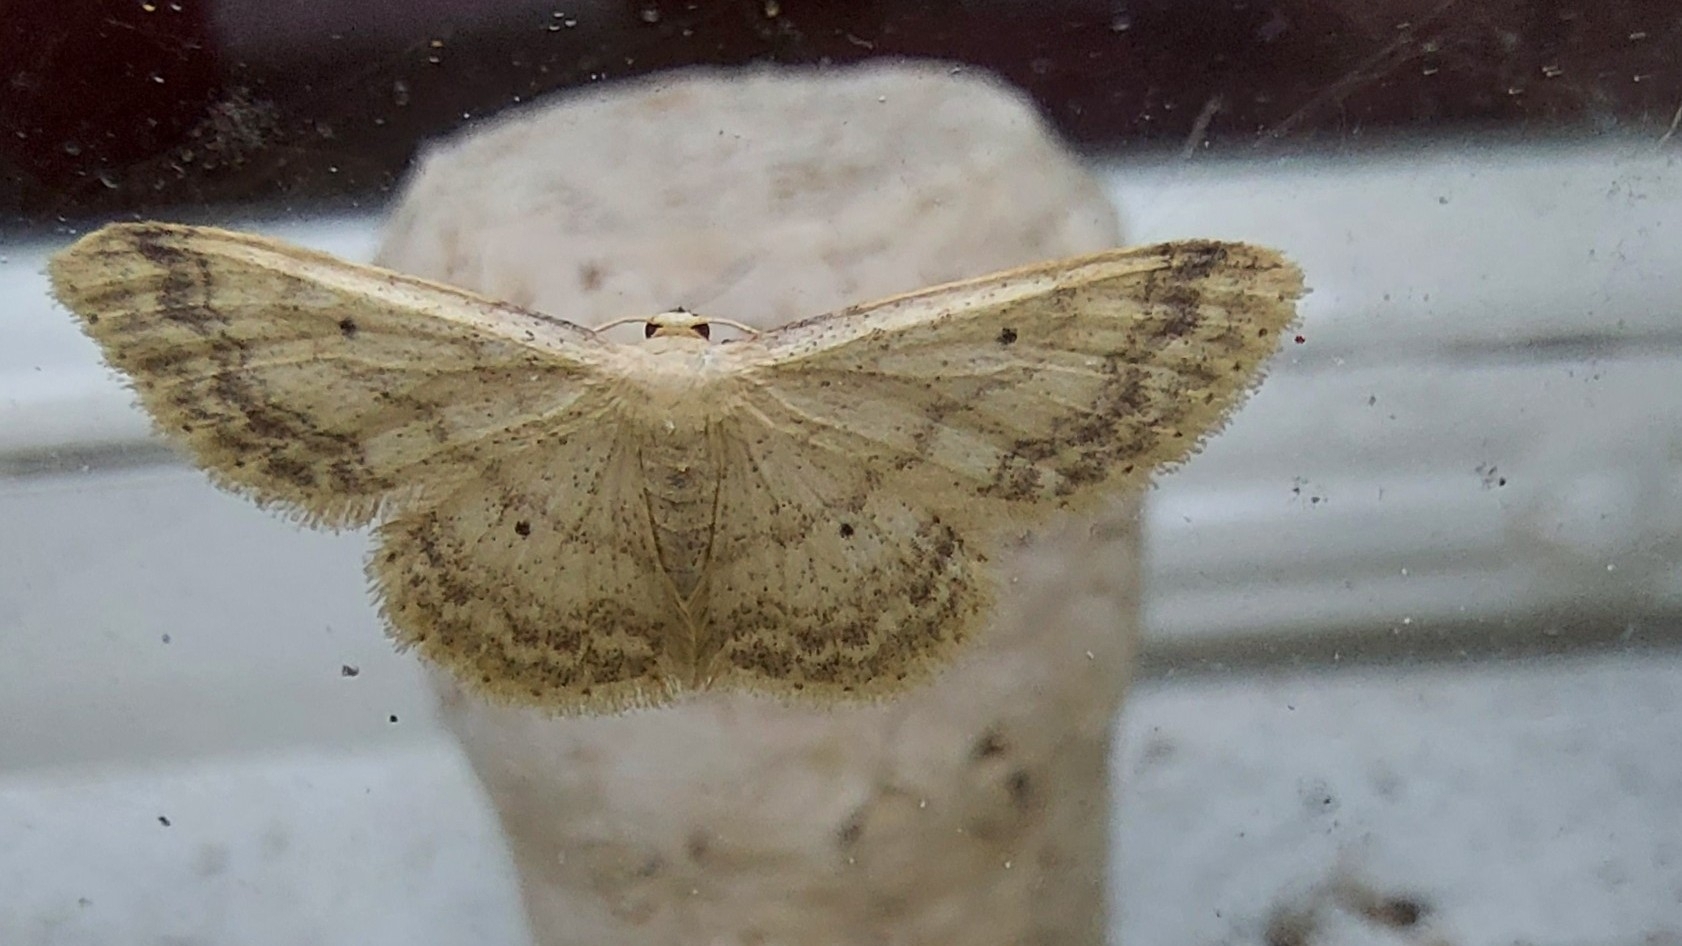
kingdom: Animalia
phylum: Arthropoda
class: Insecta
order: Lepidoptera
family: Geometridae
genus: Idaea
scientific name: Idaea biselata
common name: Small fan-footed wave
